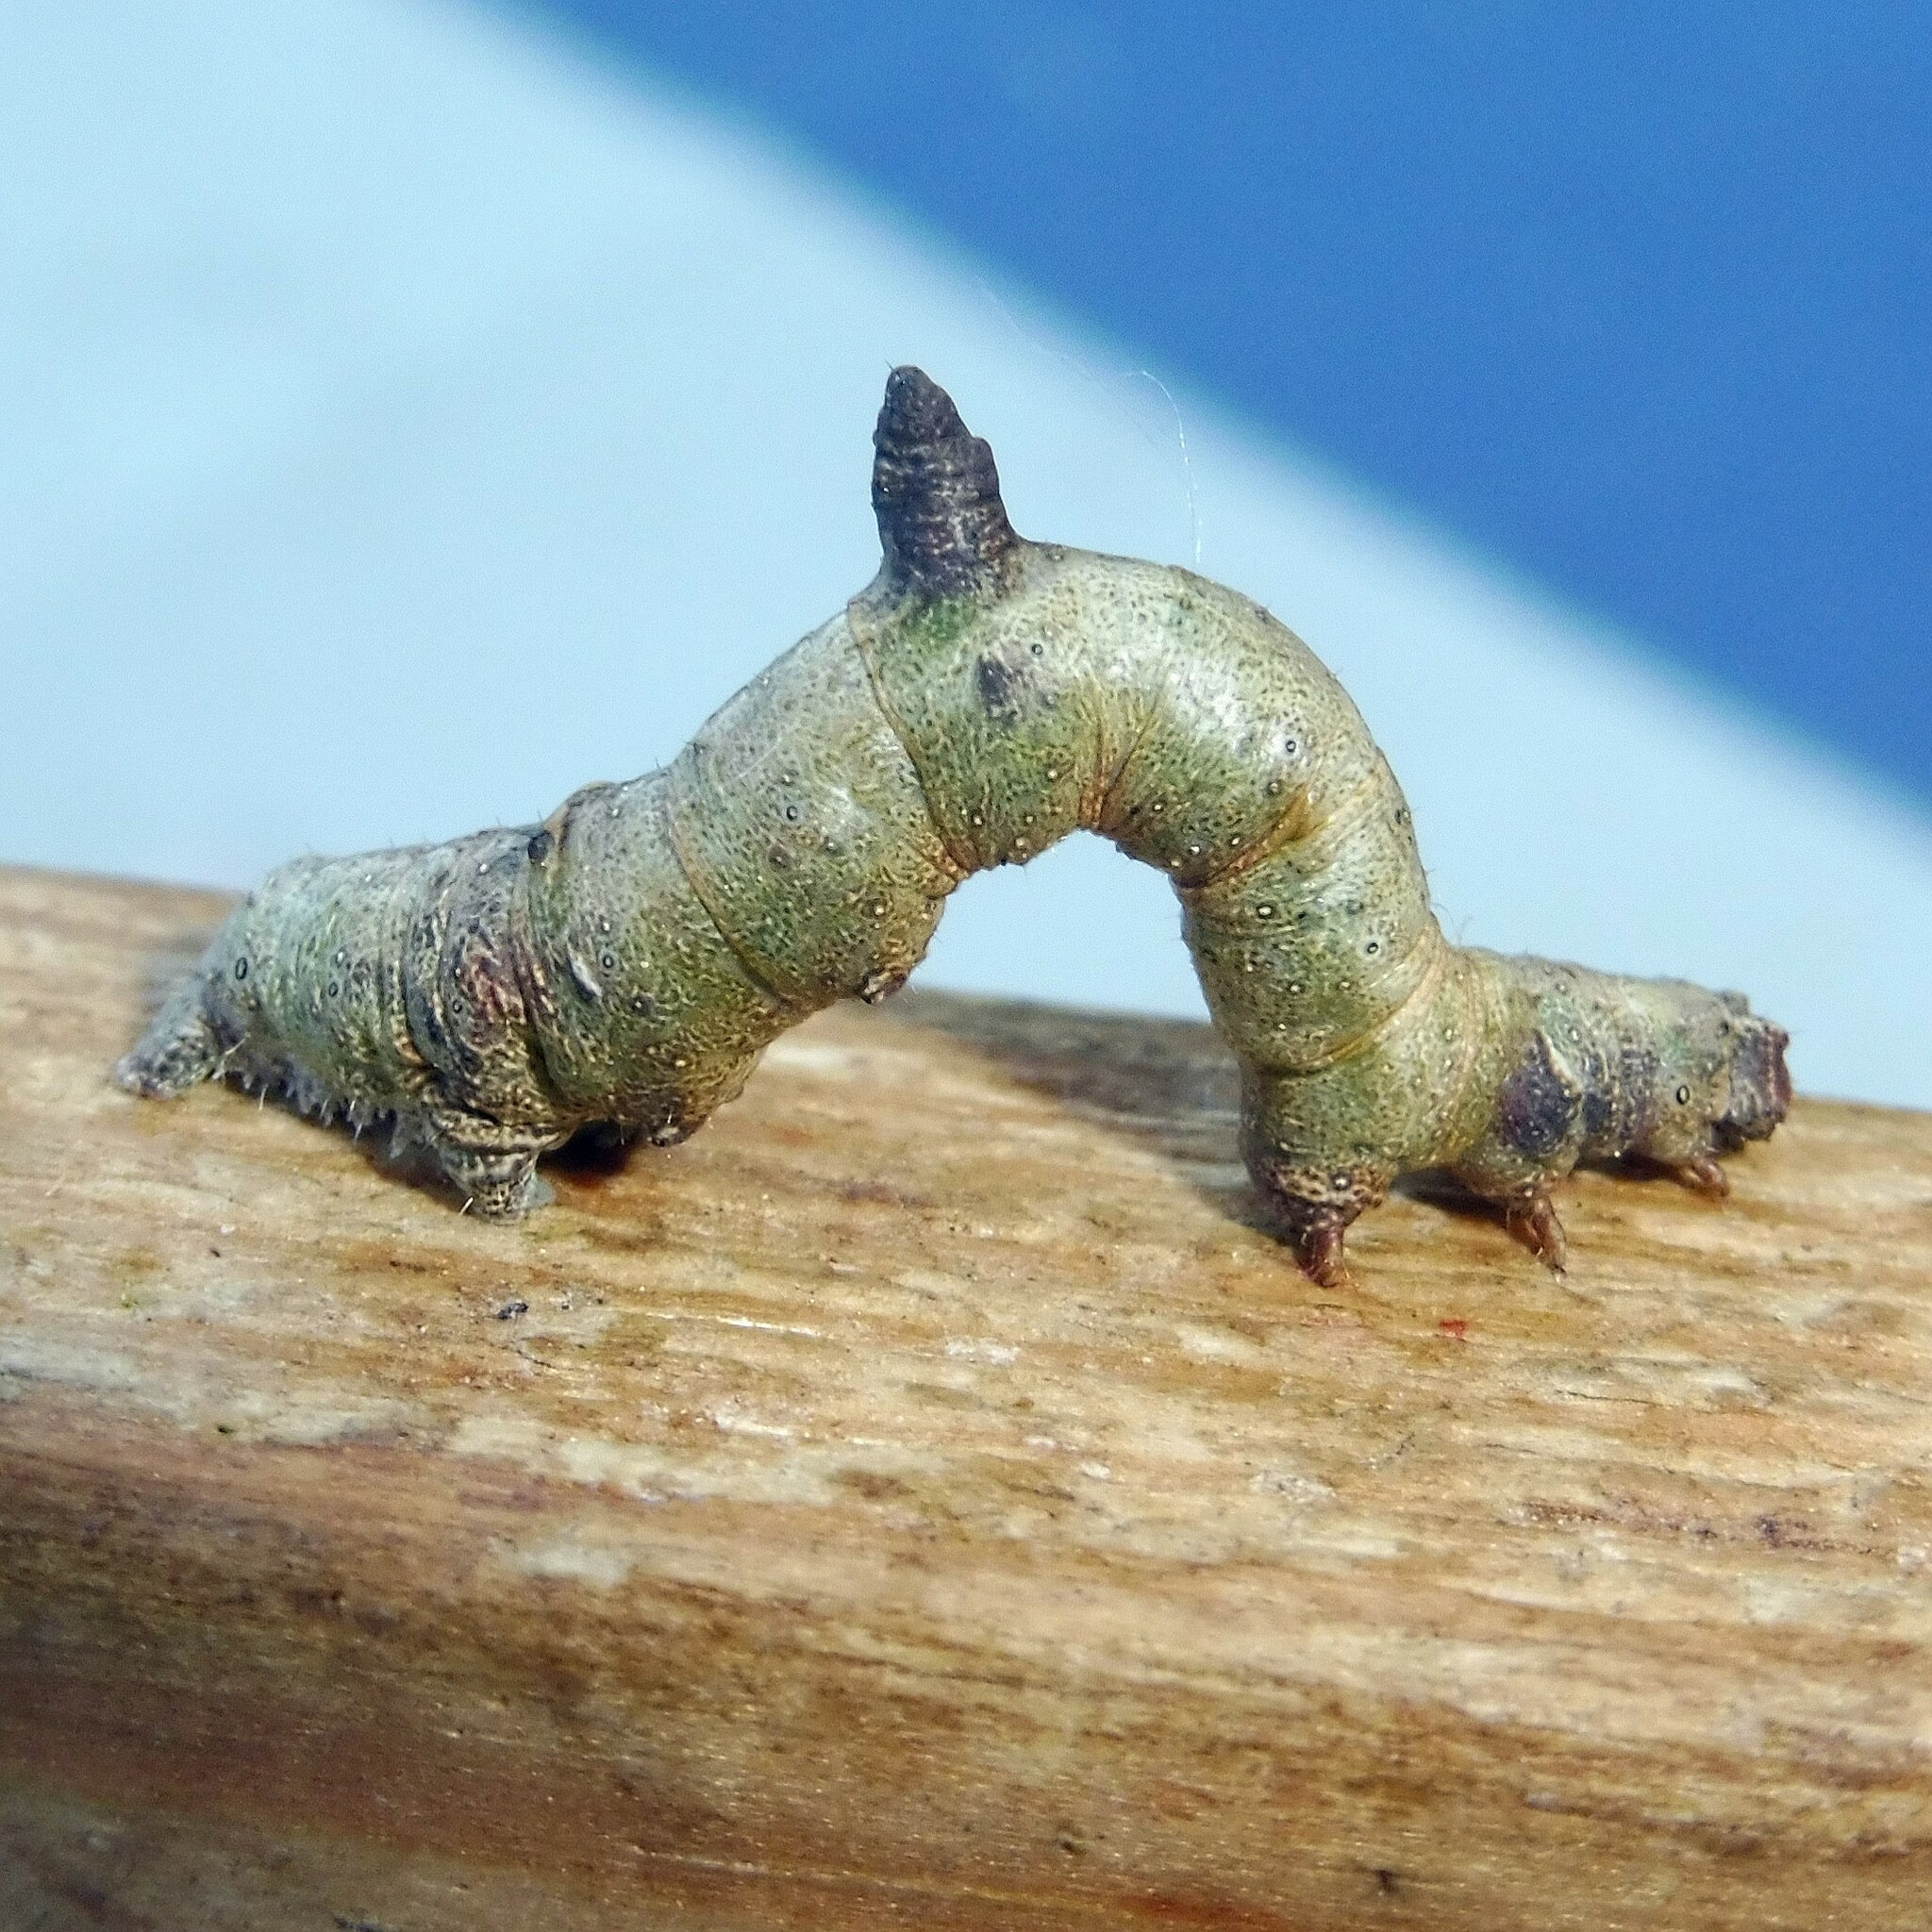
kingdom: Animalia
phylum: Arthropoda
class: Insecta
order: Lepidoptera
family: Geometridae
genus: Opisthograptis
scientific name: Opisthograptis luteolata
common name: Brimstone moth
